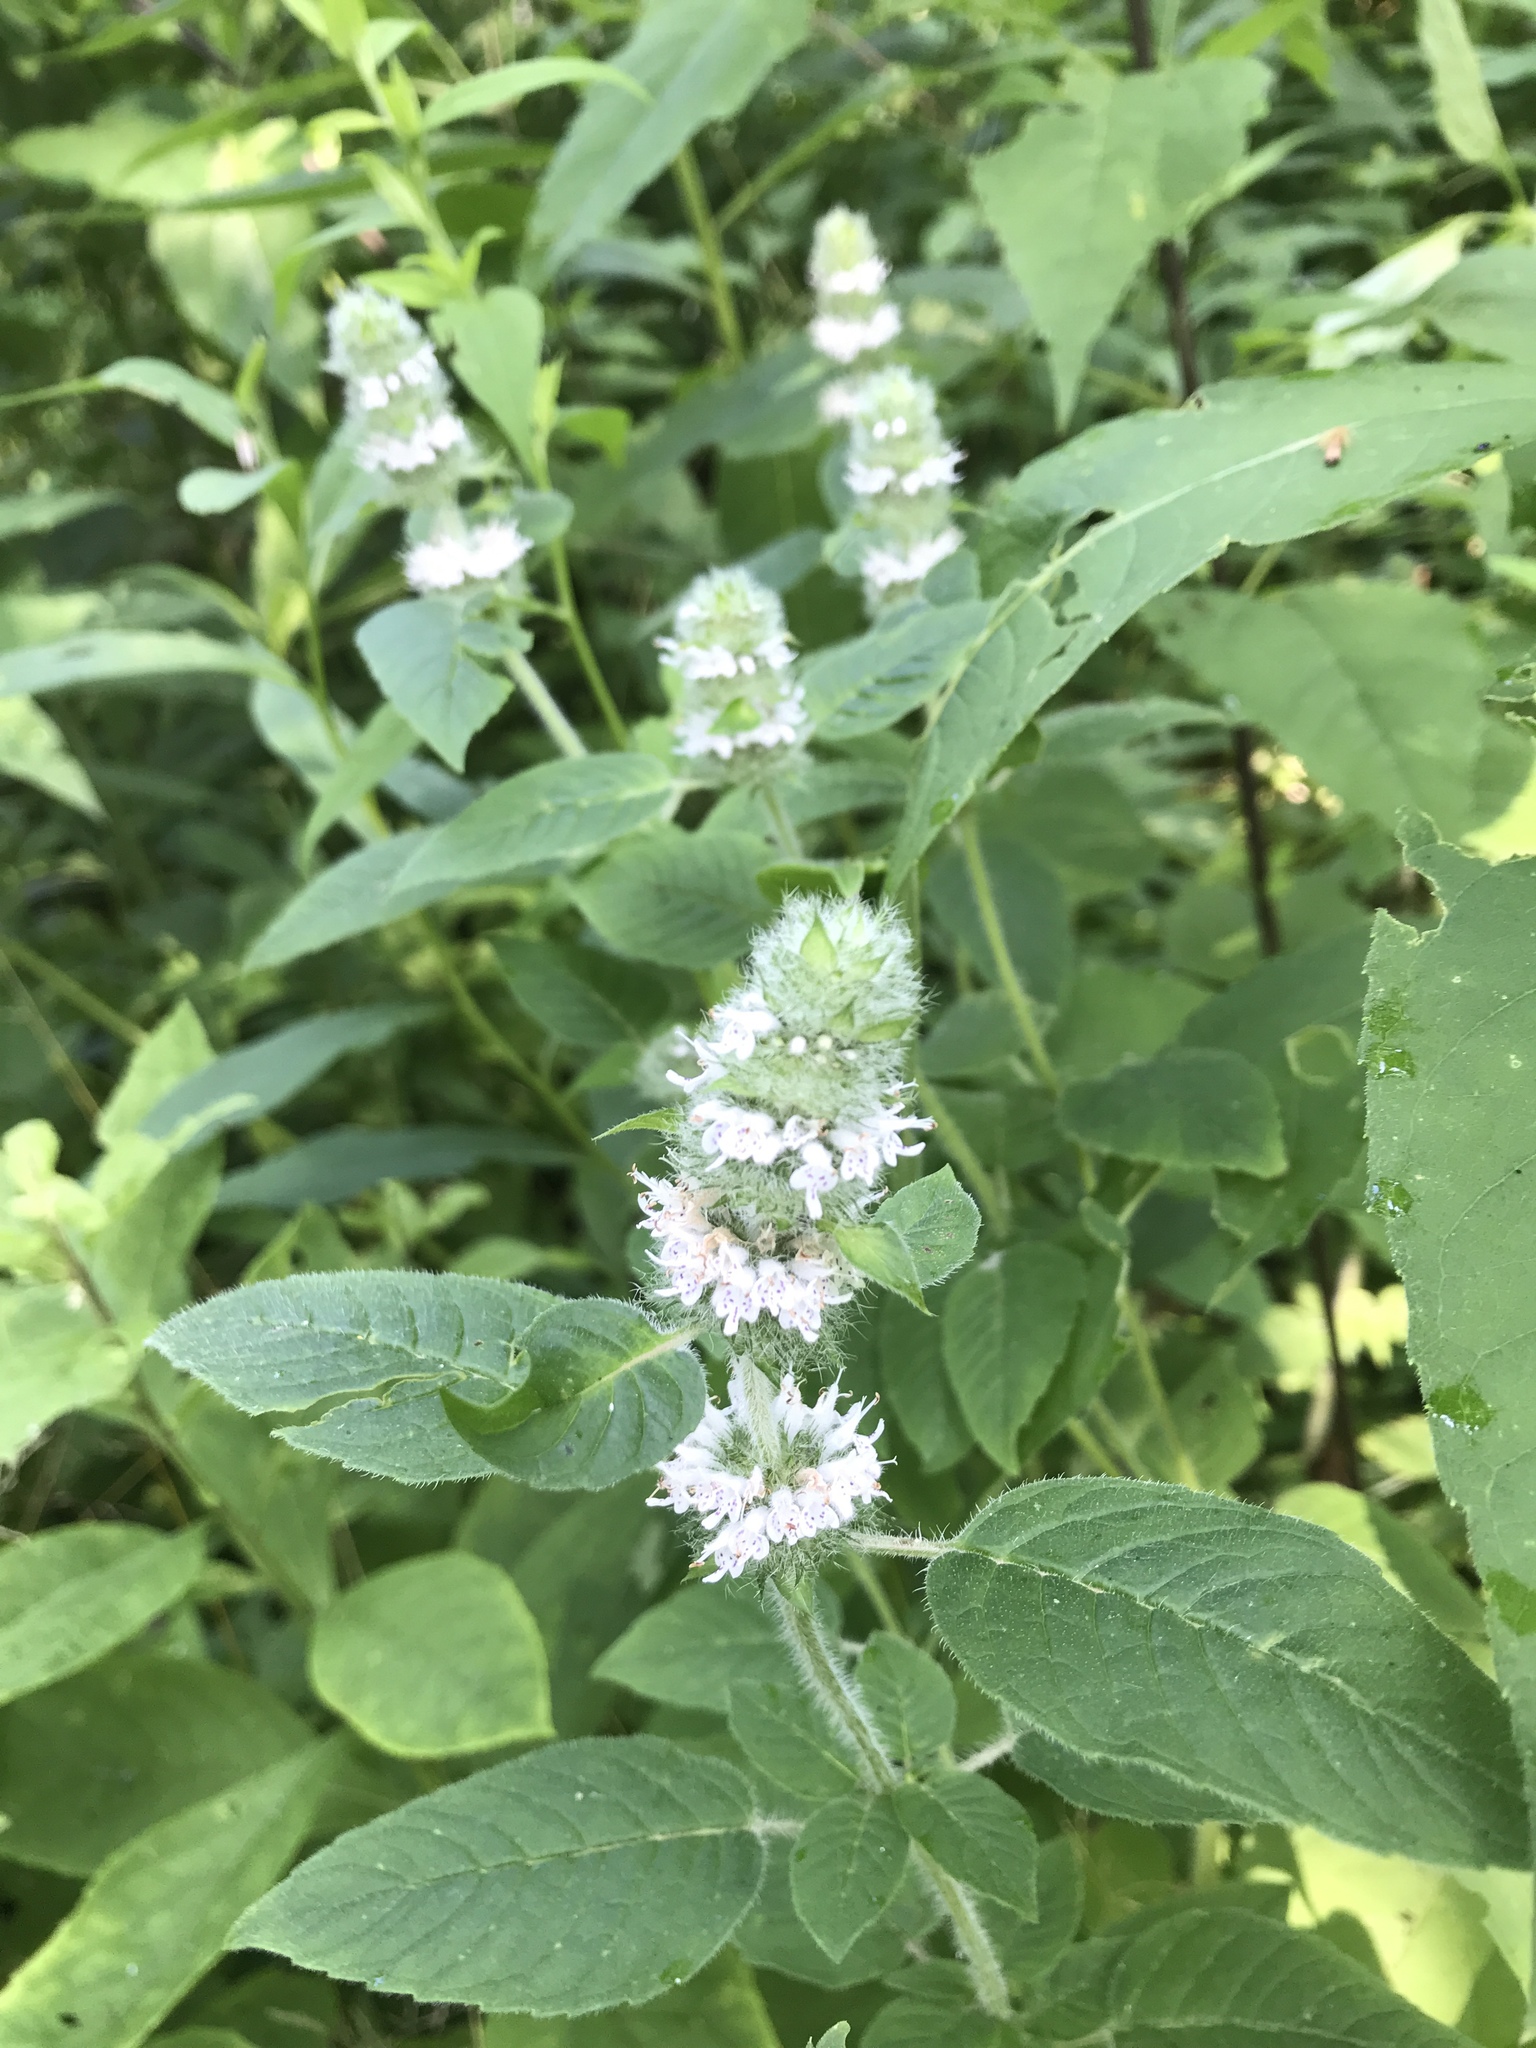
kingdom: Plantae
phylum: Tracheophyta
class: Magnoliopsida
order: Lamiales
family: Lamiaceae
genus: Blephilia
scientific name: Blephilia hirsuta
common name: Hairy blephilia
